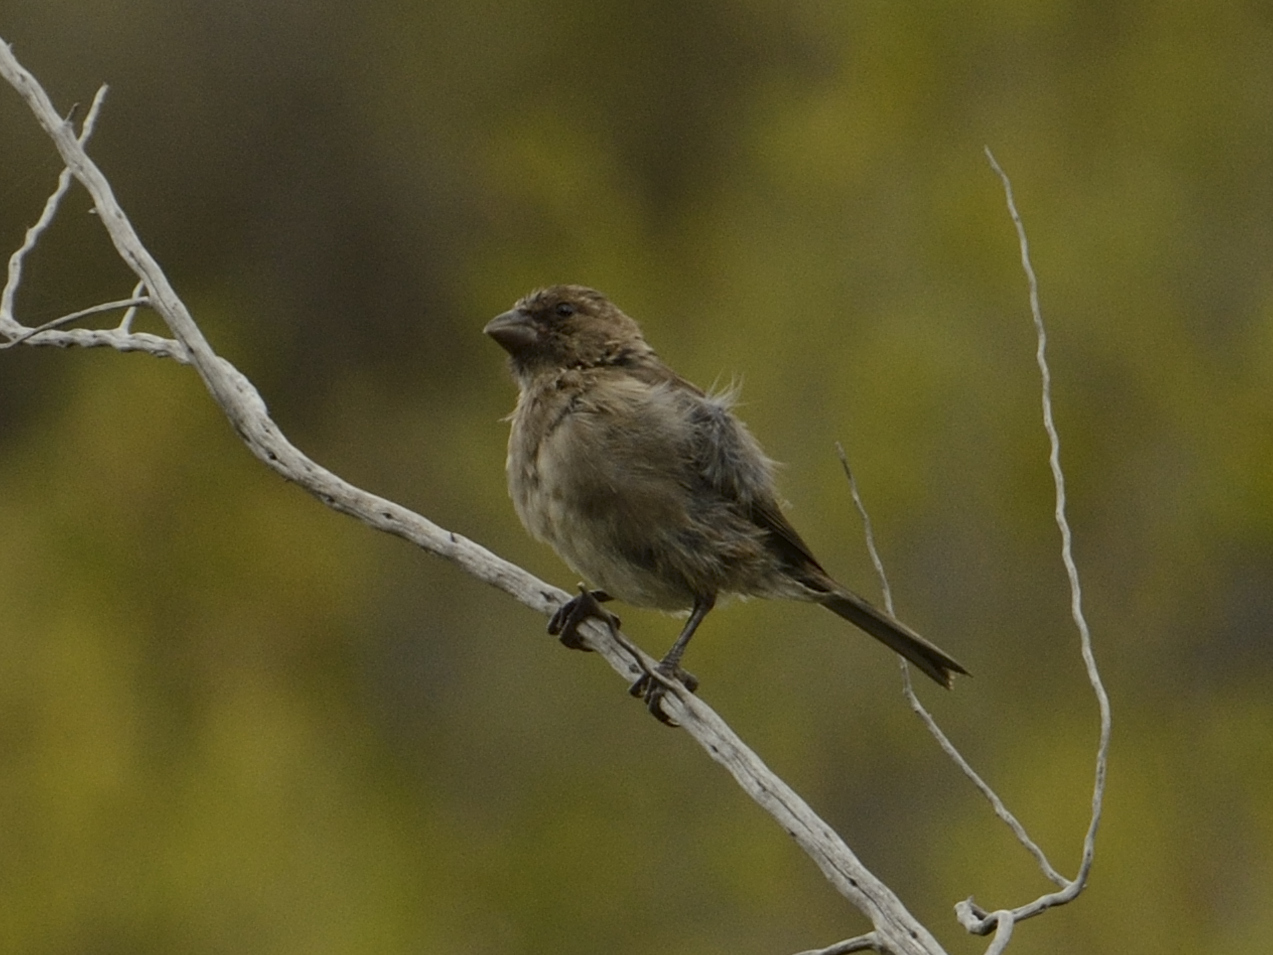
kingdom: Animalia
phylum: Chordata
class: Aves
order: Passeriformes
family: Fringillidae
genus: Crithagra
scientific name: Crithagra leucoptera
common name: Protea canary
